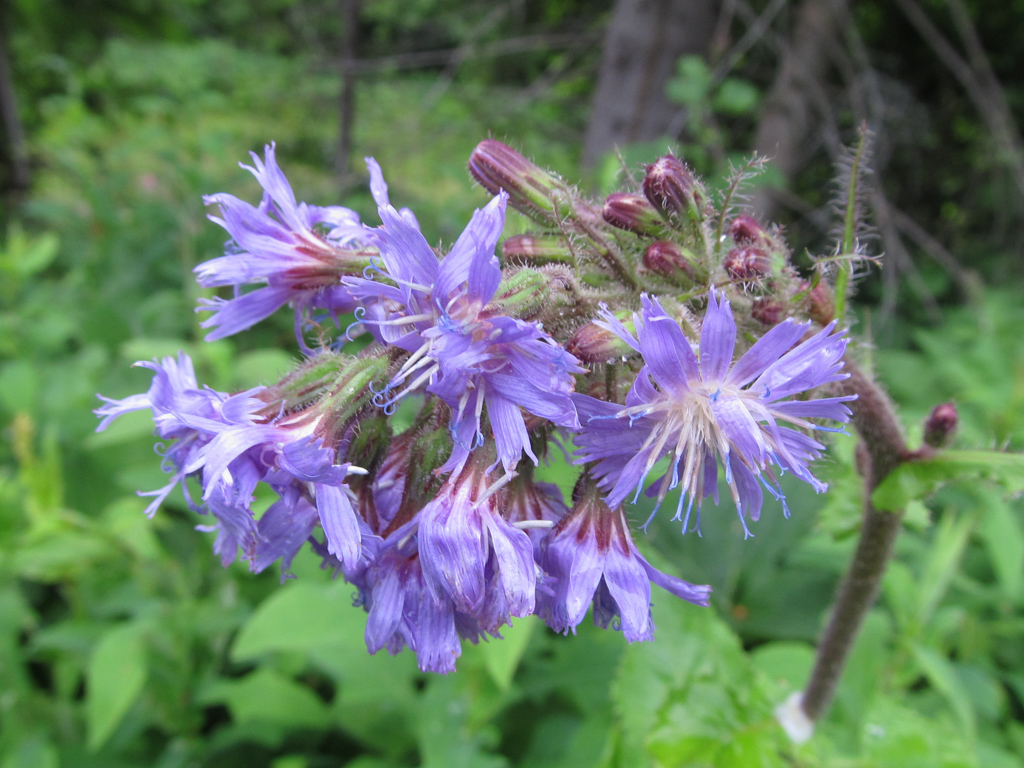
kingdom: Plantae
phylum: Tracheophyta
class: Magnoliopsida
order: Asterales
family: Asteraceae
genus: Cicerbita
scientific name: Cicerbita alpina
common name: Alpine blue-sow-thistle
